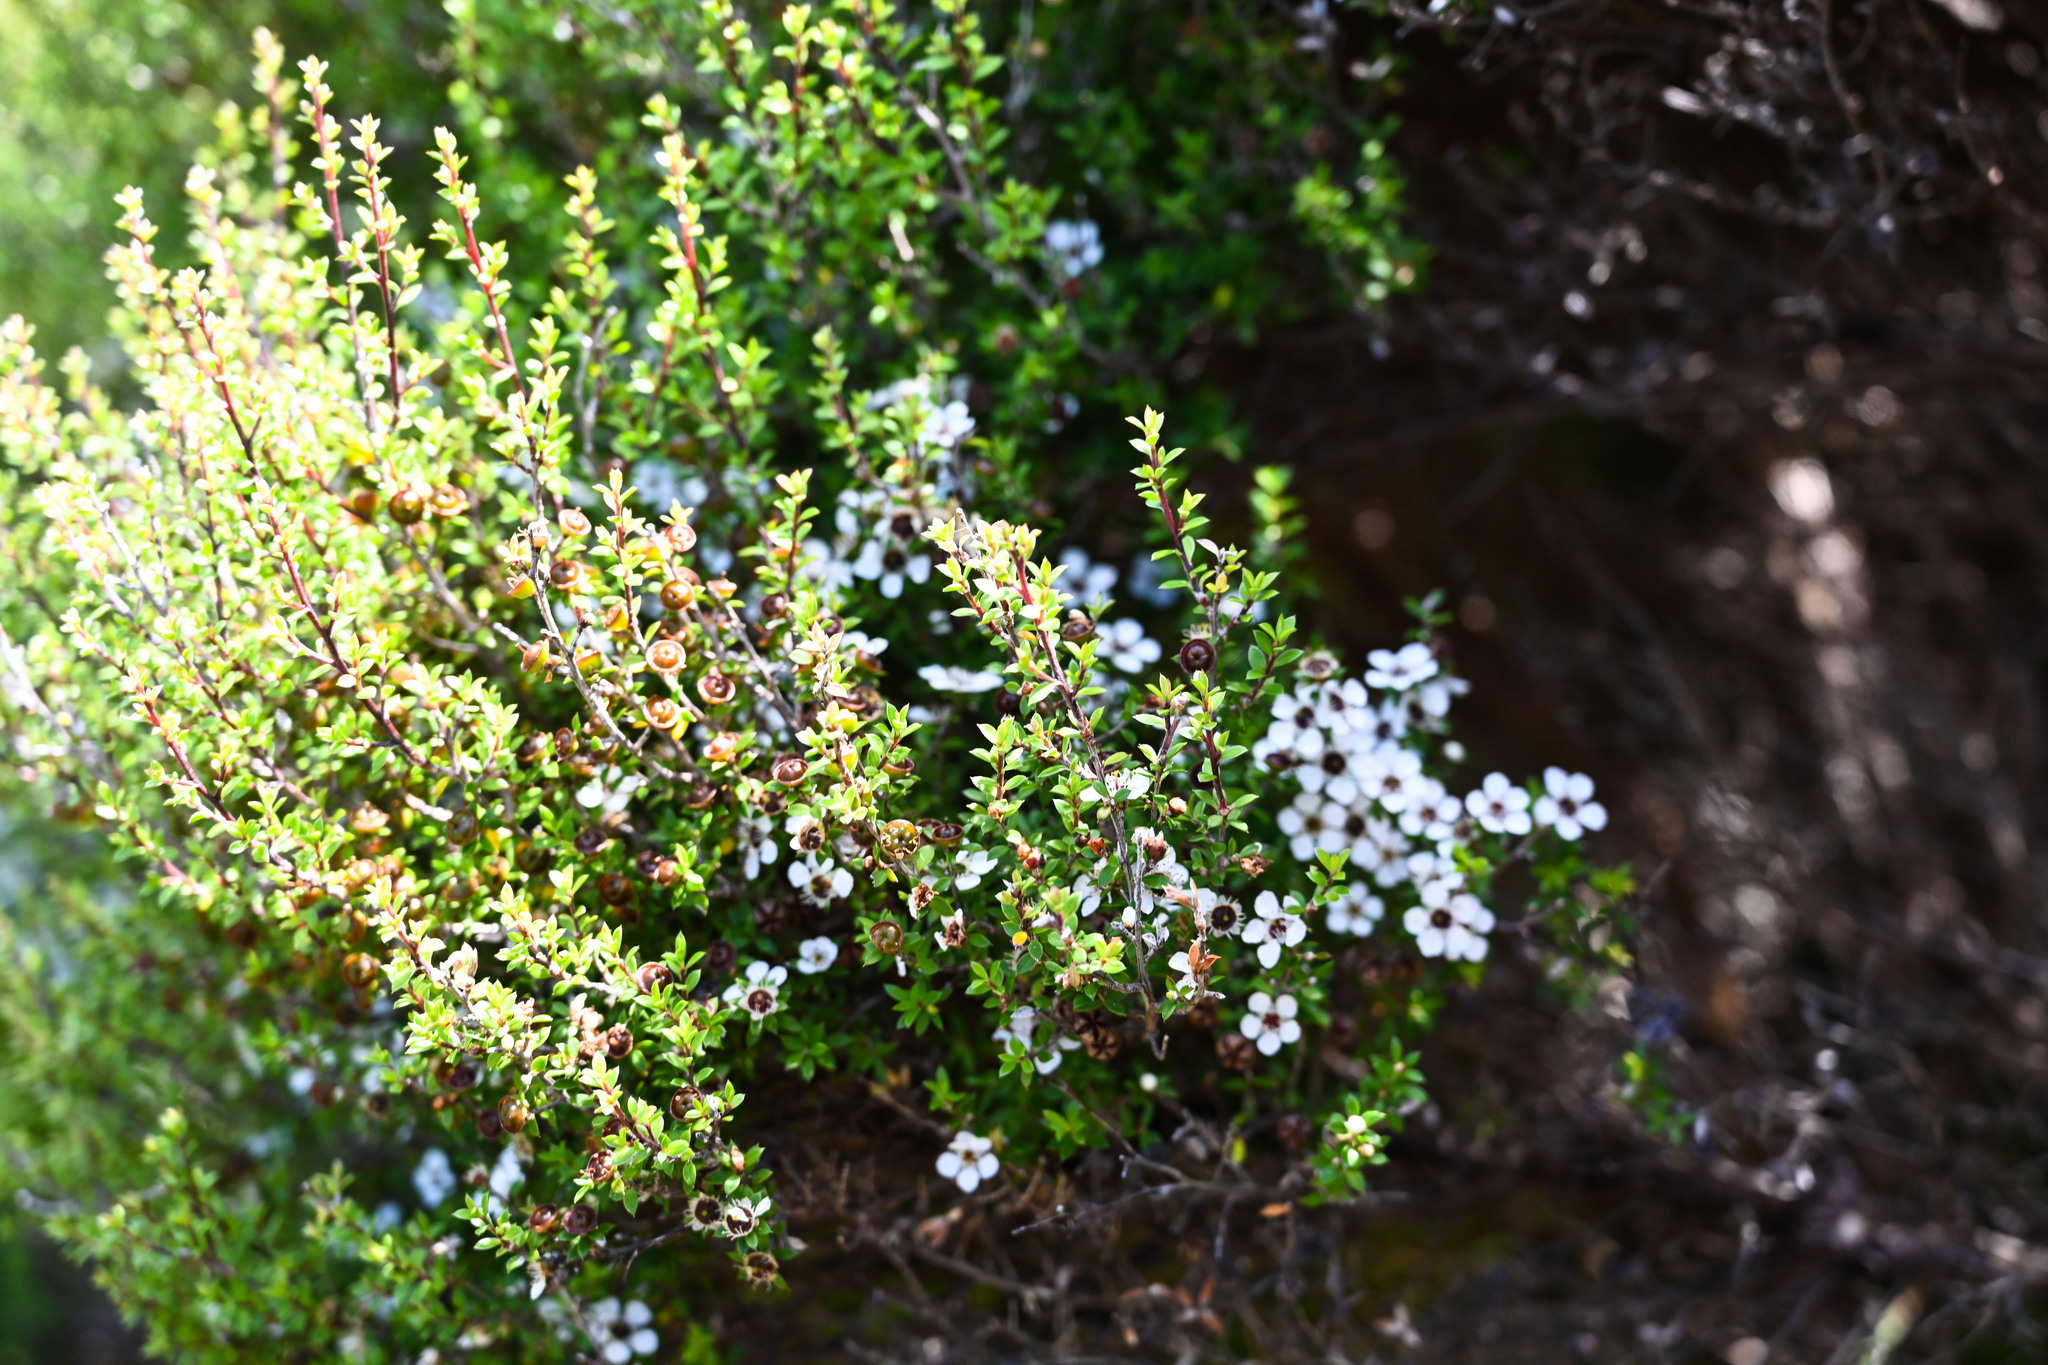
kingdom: Plantae
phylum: Tracheophyta
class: Magnoliopsida
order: Myrtales
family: Myrtaceae
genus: Leptospermum
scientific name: Leptospermum scoparium
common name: Broom tea-tree
